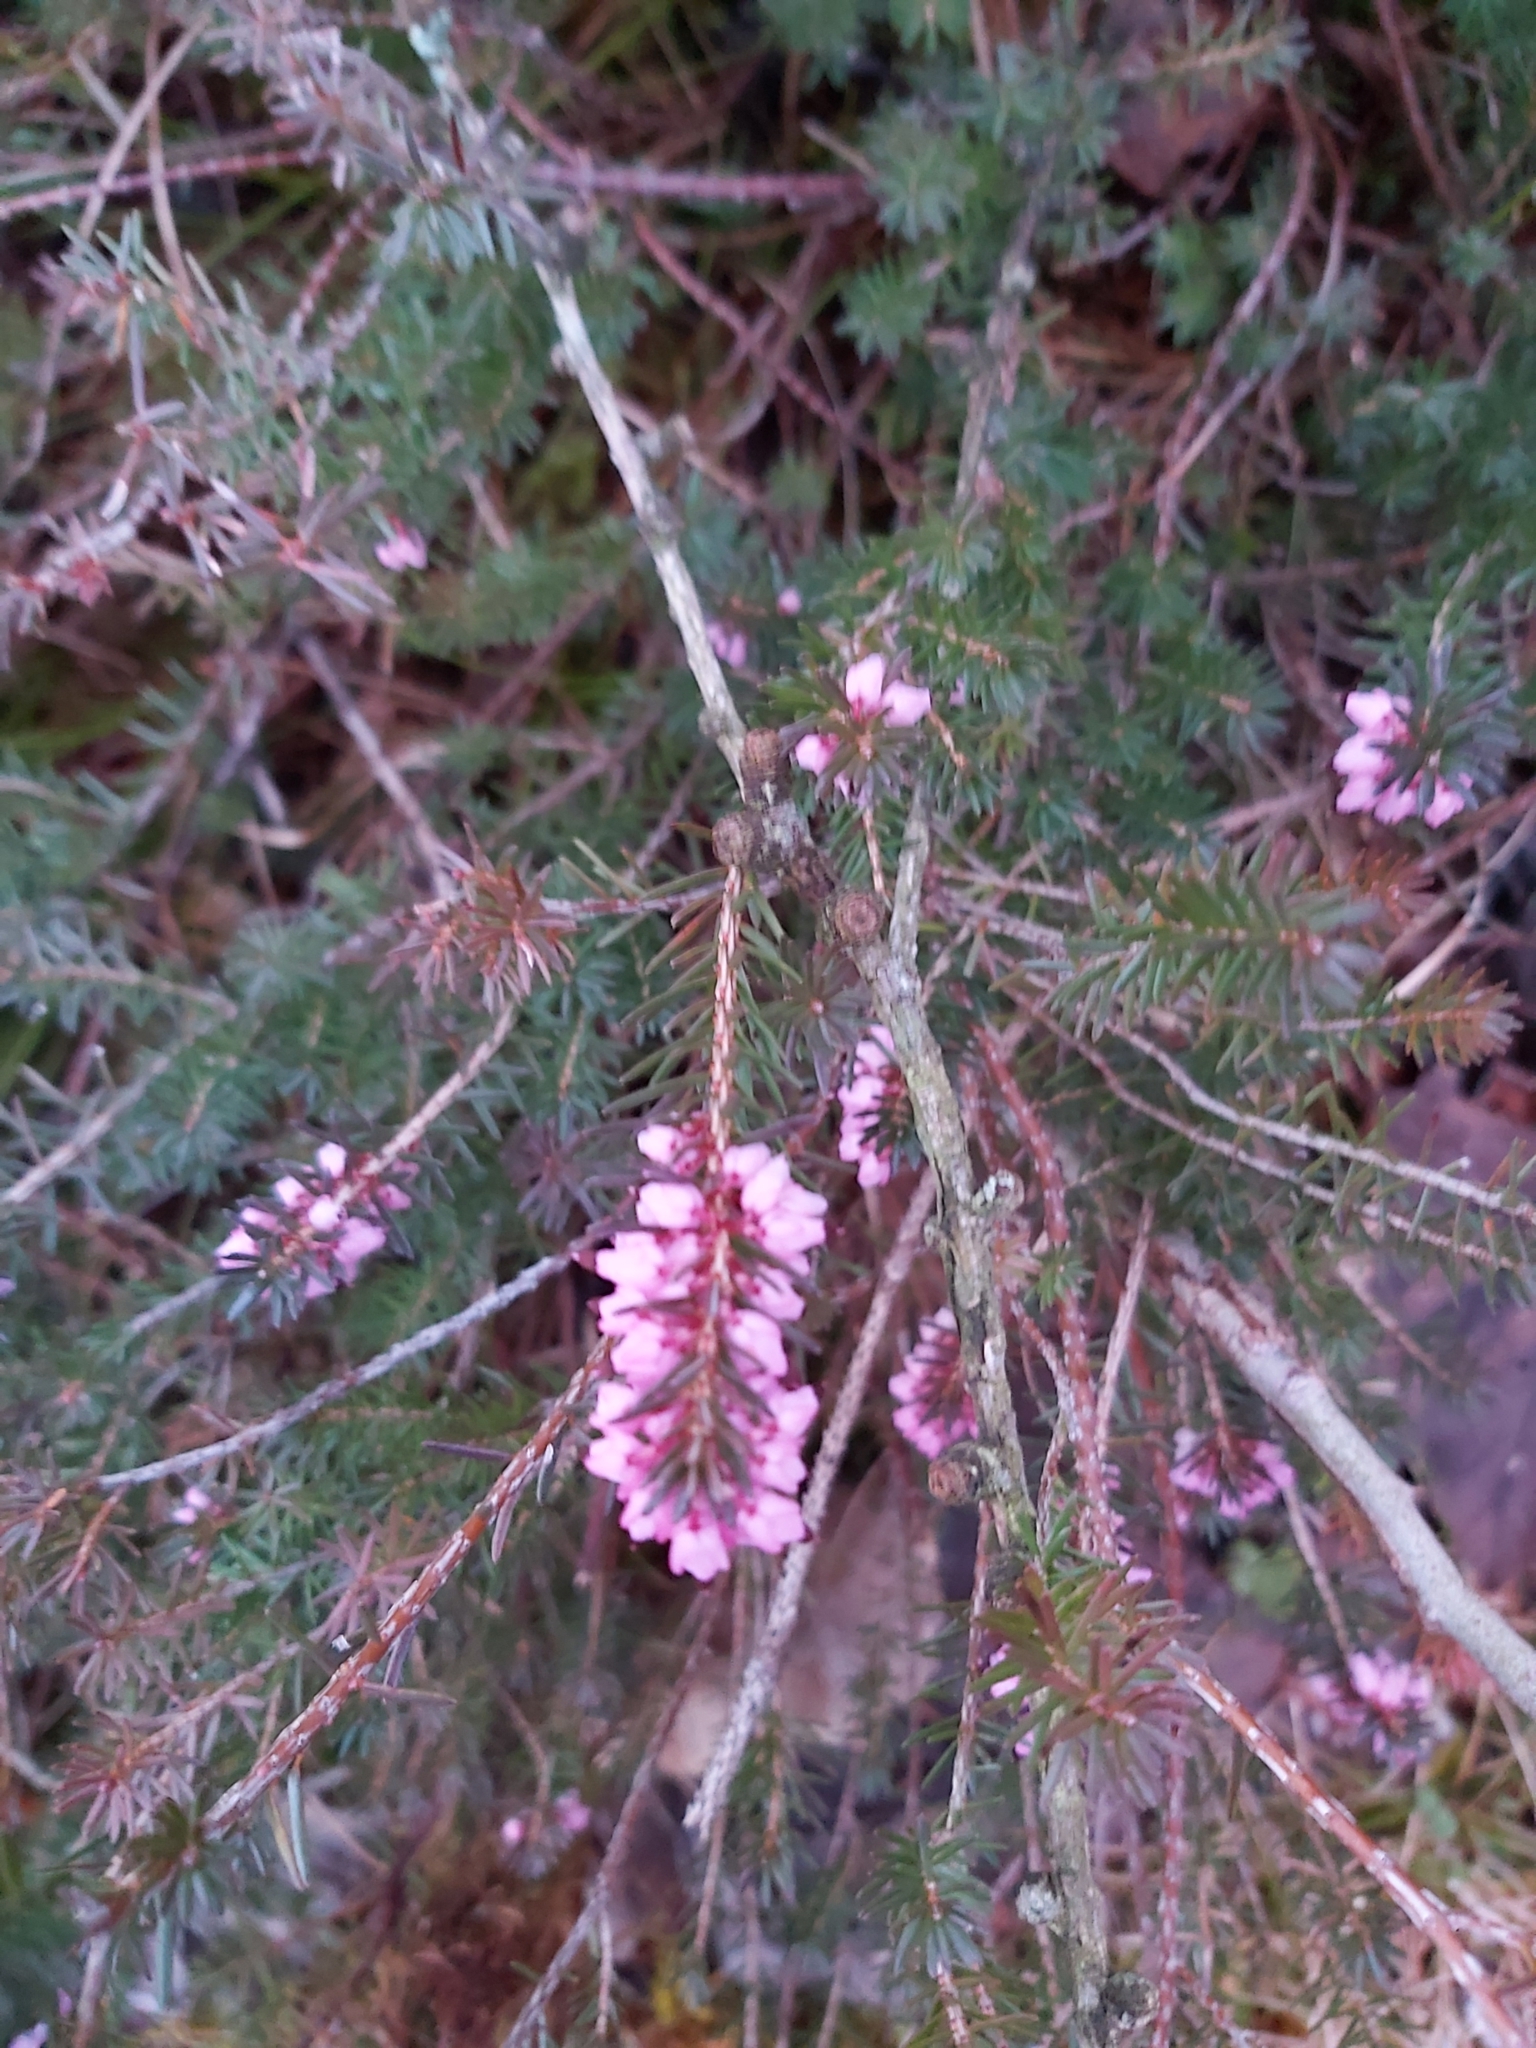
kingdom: Plantae
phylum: Tracheophyta
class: Magnoliopsida
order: Ericales
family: Ericaceae
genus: Erica
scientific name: Erica carnea
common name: Winter heath
